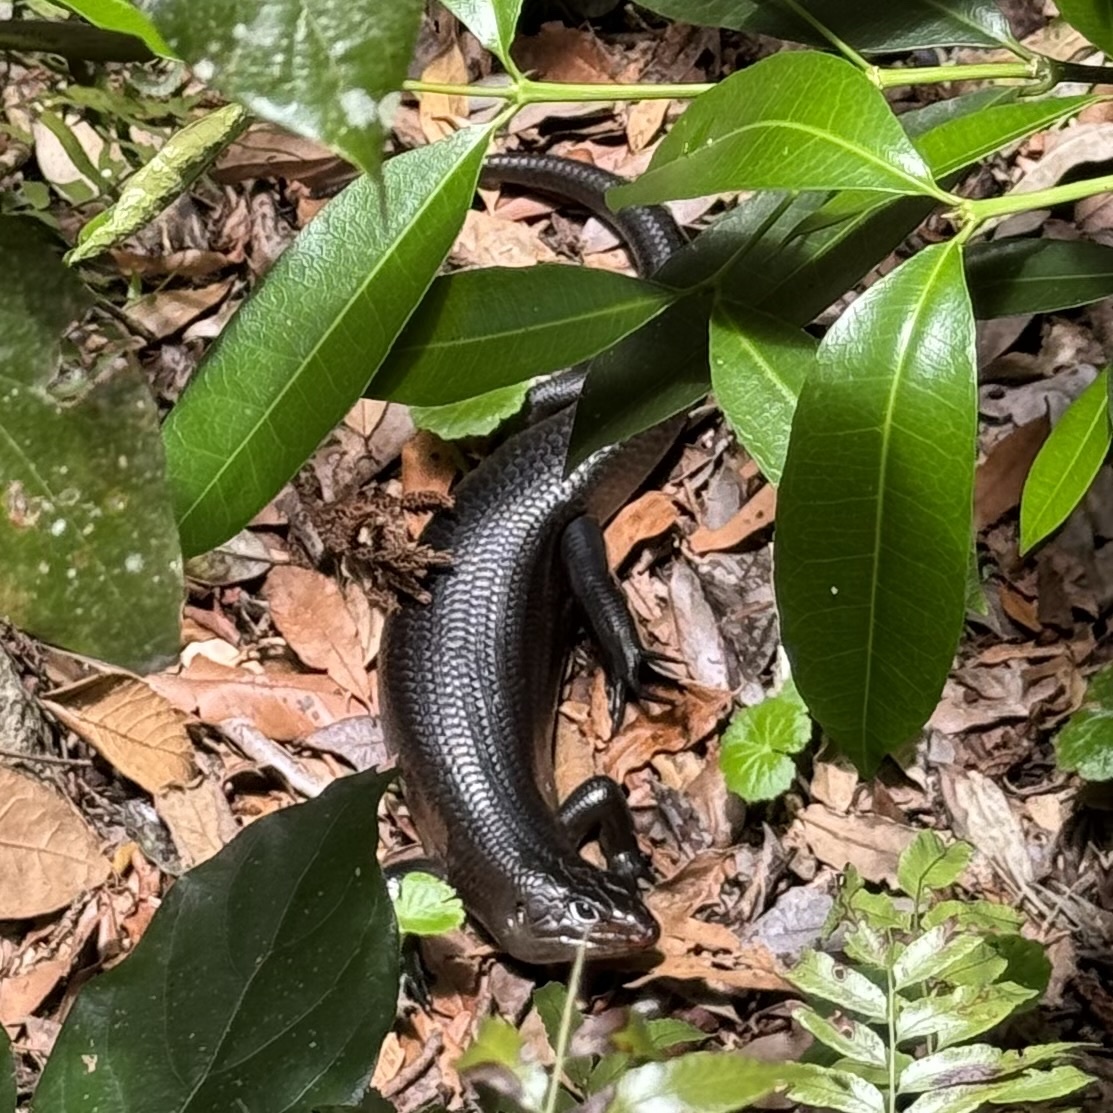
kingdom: Animalia
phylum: Chordata
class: Squamata
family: Scincidae
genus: Bellatorias
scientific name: Bellatorias major
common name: Land mullet
